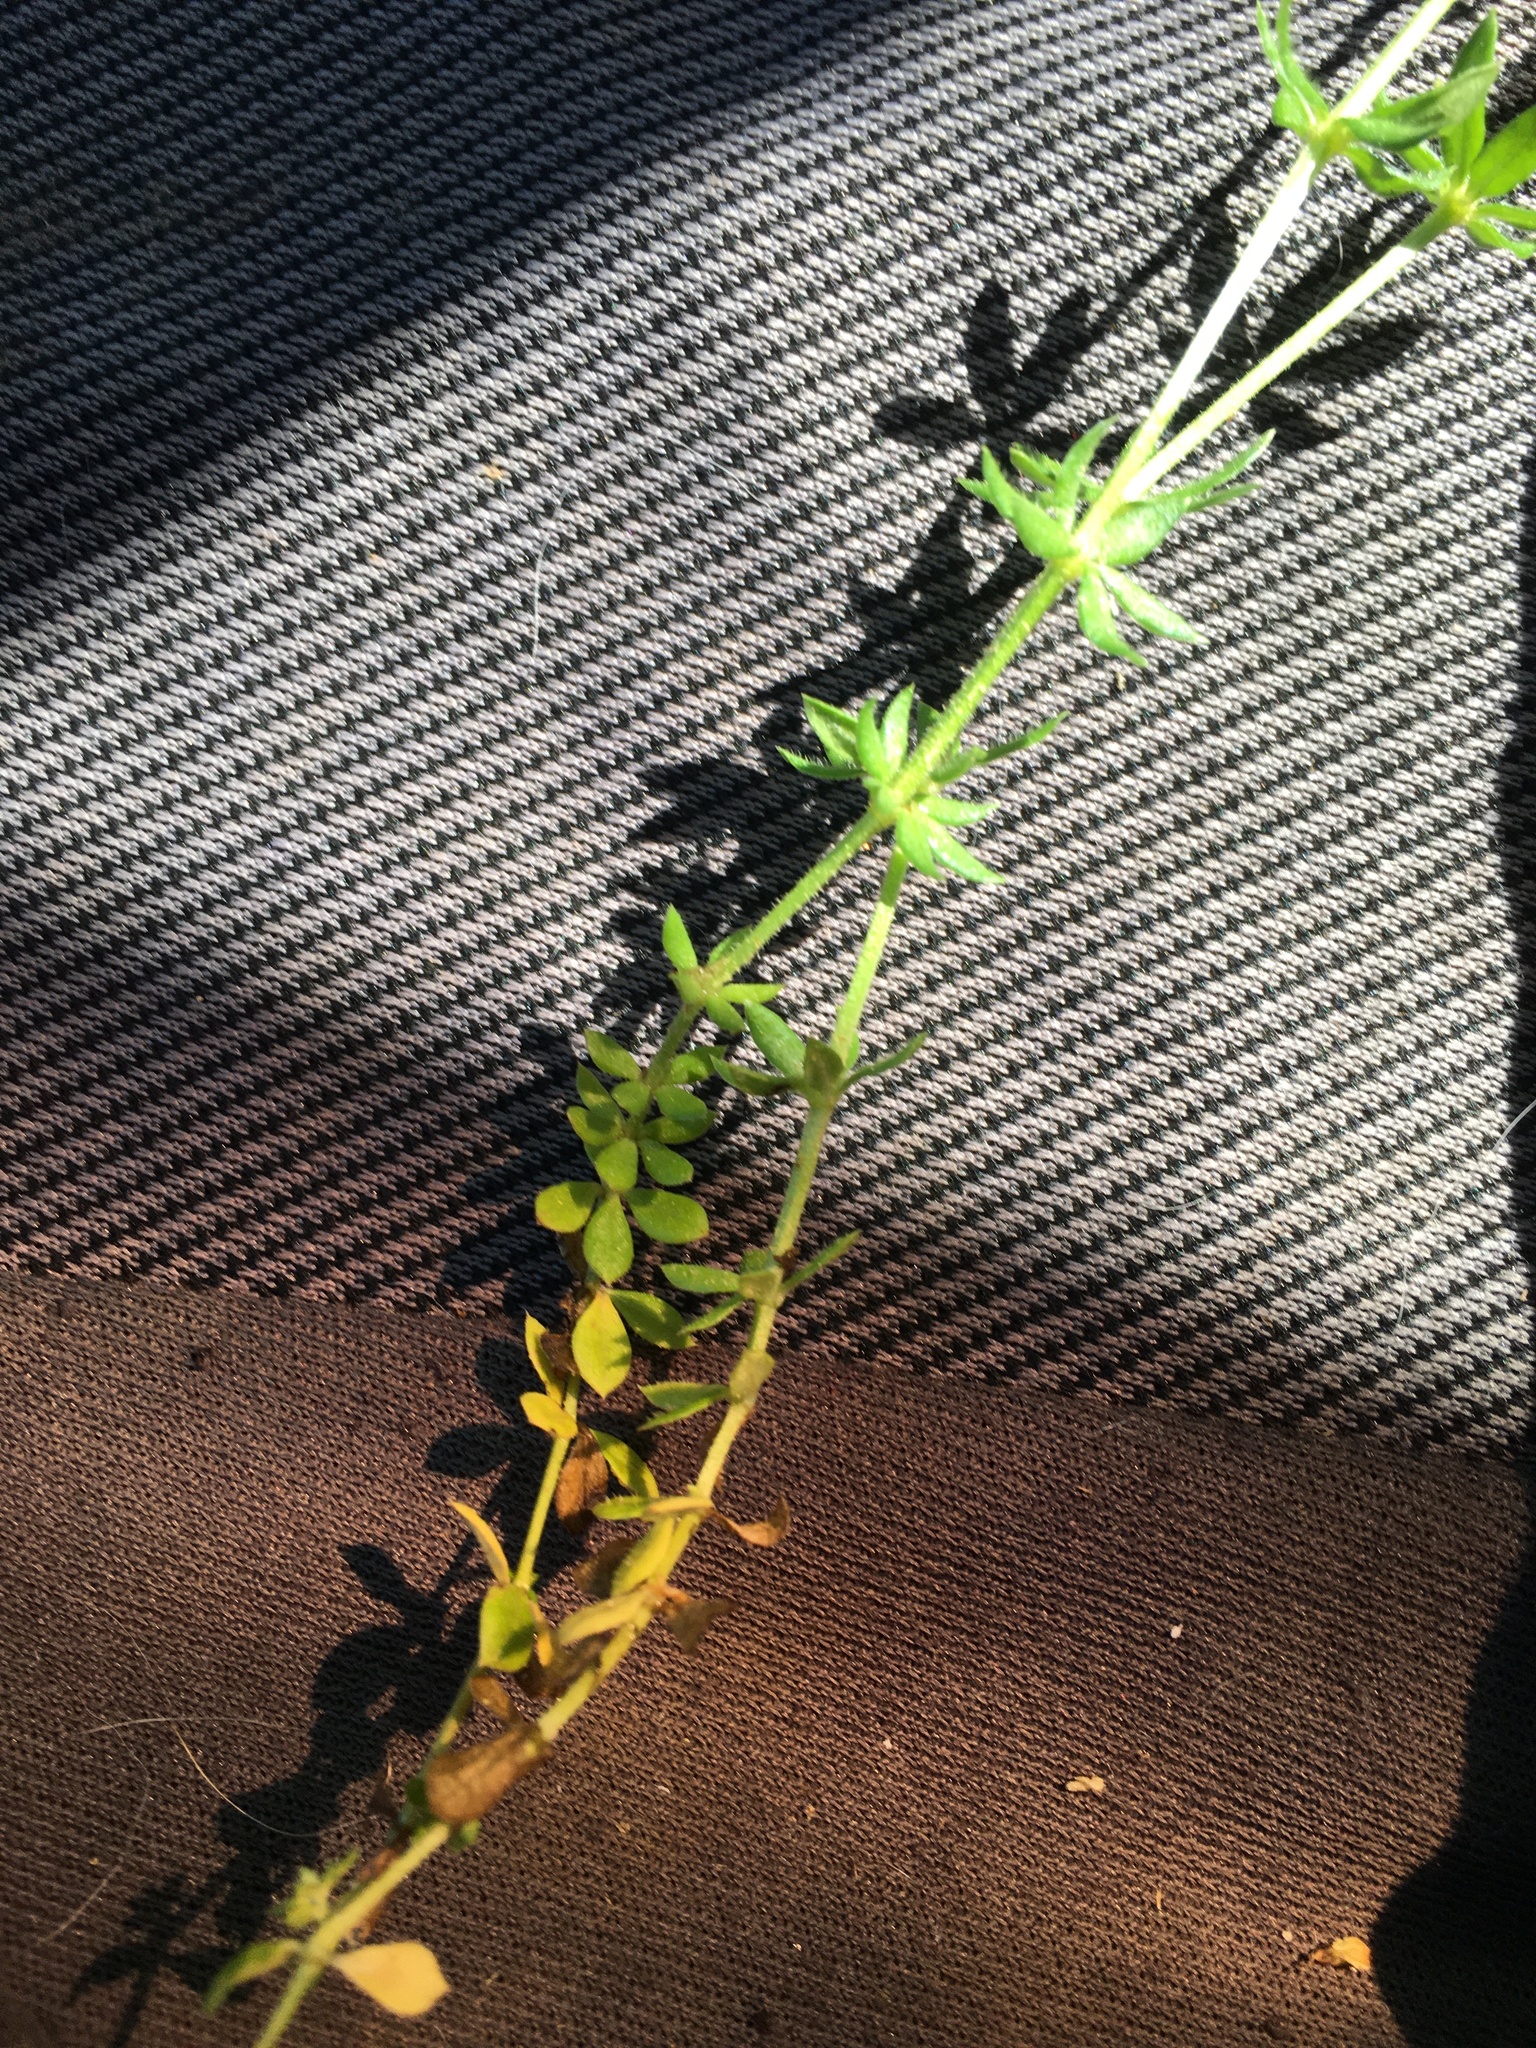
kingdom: Plantae
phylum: Tracheophyta
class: Magnoliopsida
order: Gentianales
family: Rubiaceae
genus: Sherardia
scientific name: Sherardia arvensis
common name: Field madder
